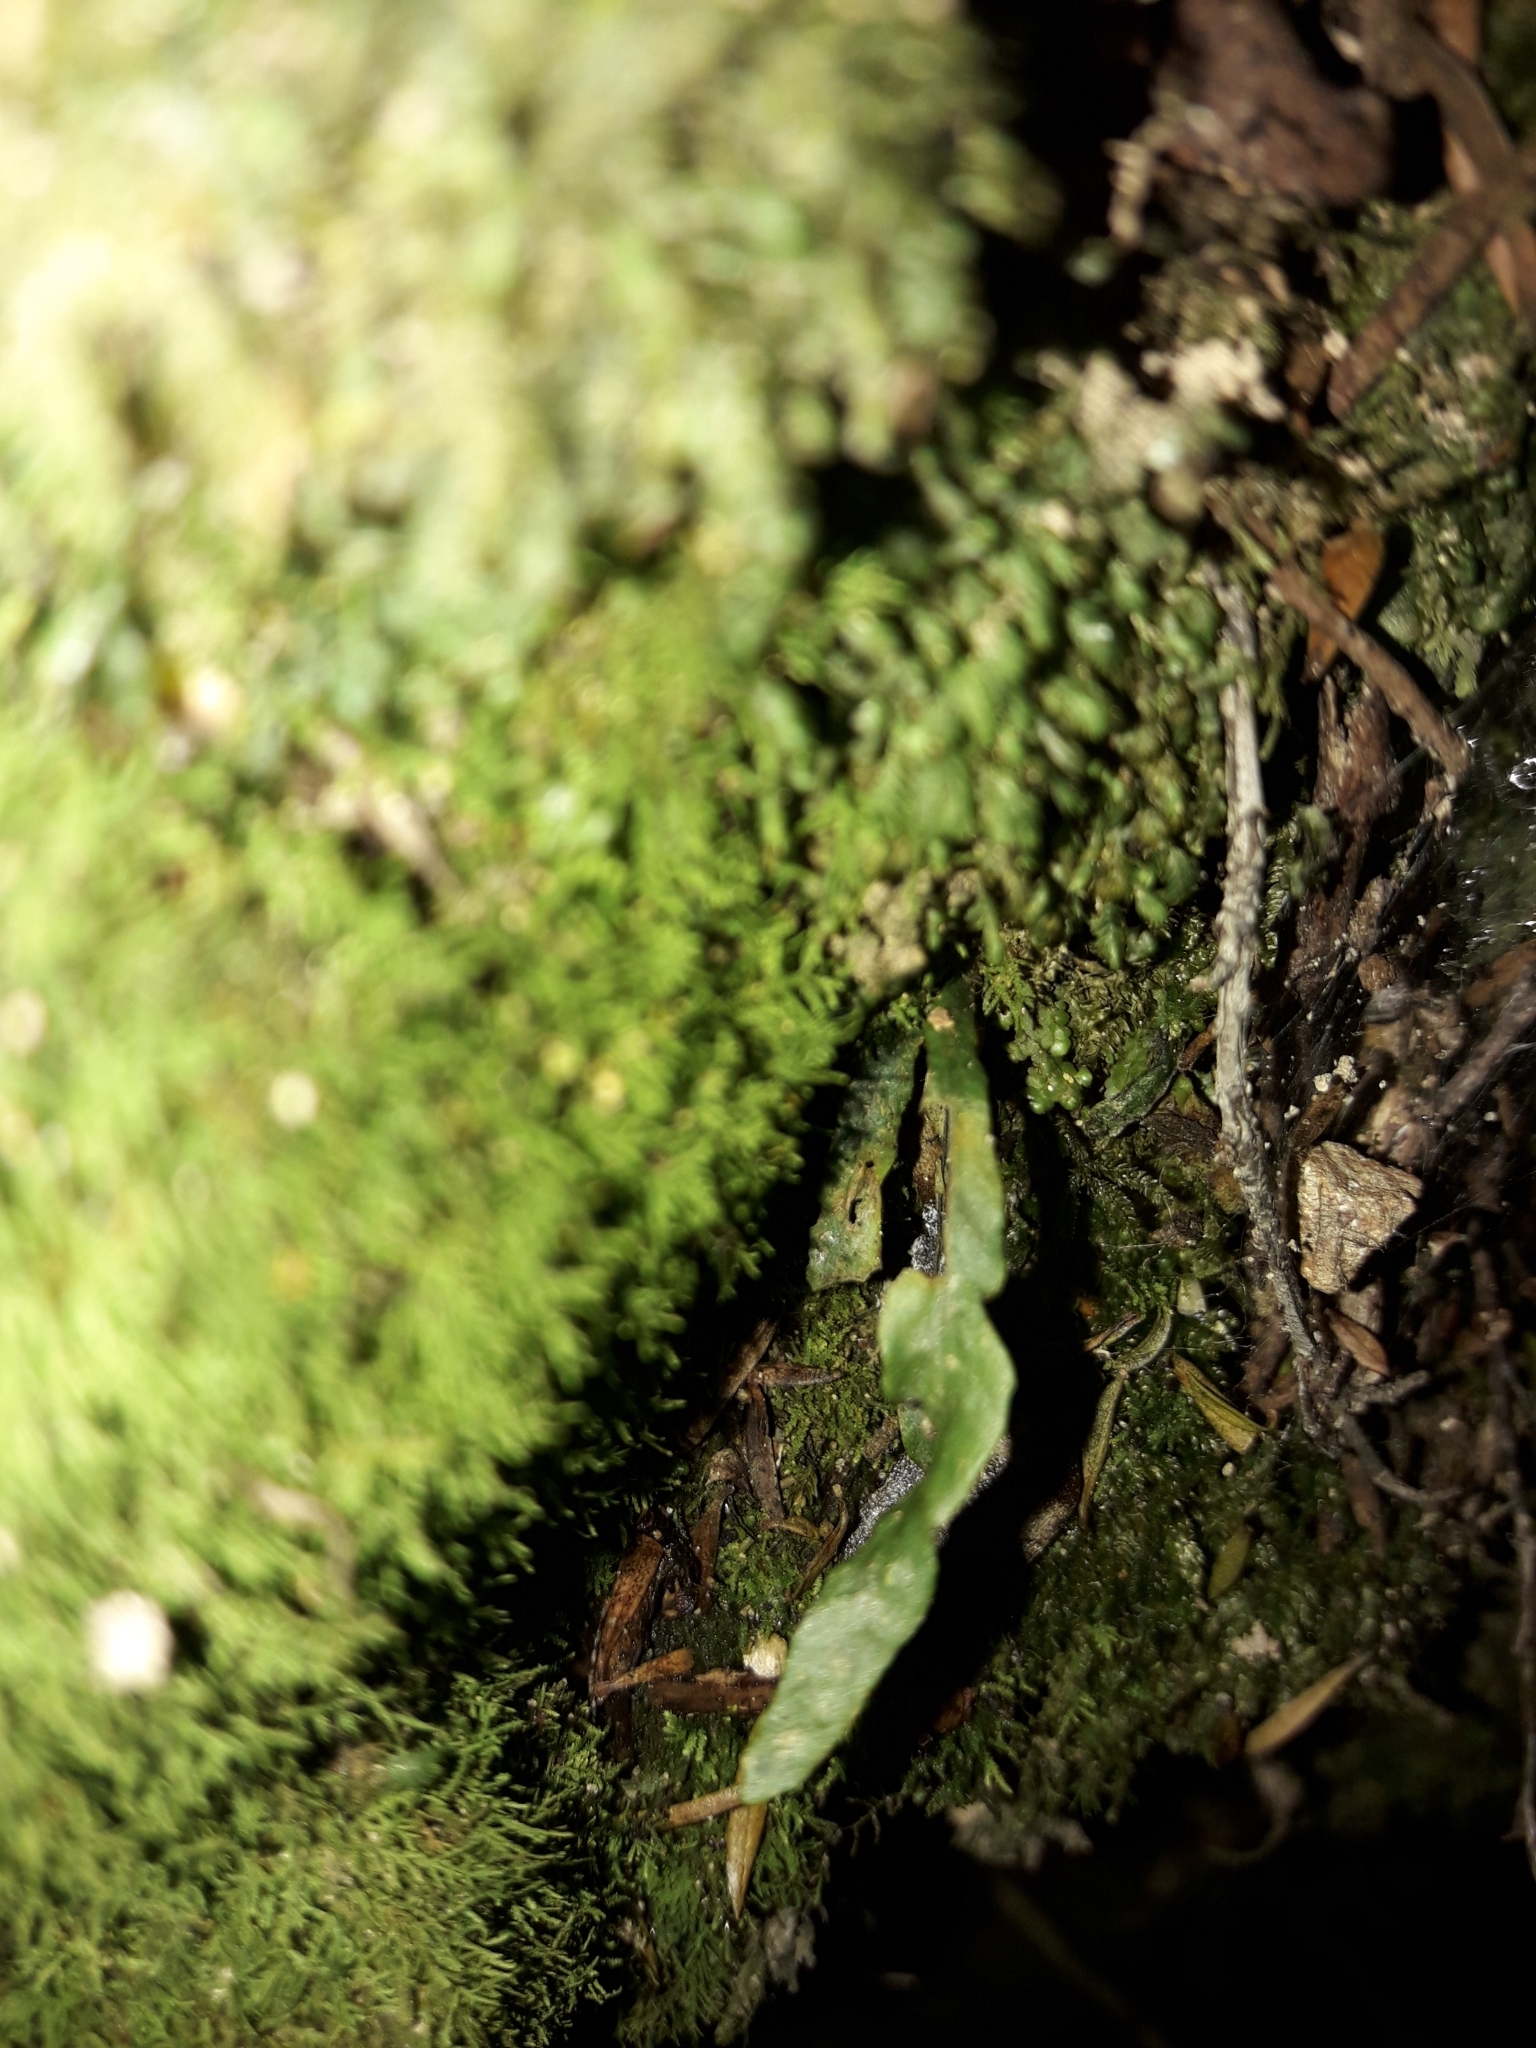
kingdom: Plantae
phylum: Tracheophyta
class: Polypodiopsida
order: Polypodiales
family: Polypodiaceae
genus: Notogrammitis
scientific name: Notogrammitis ciliata
